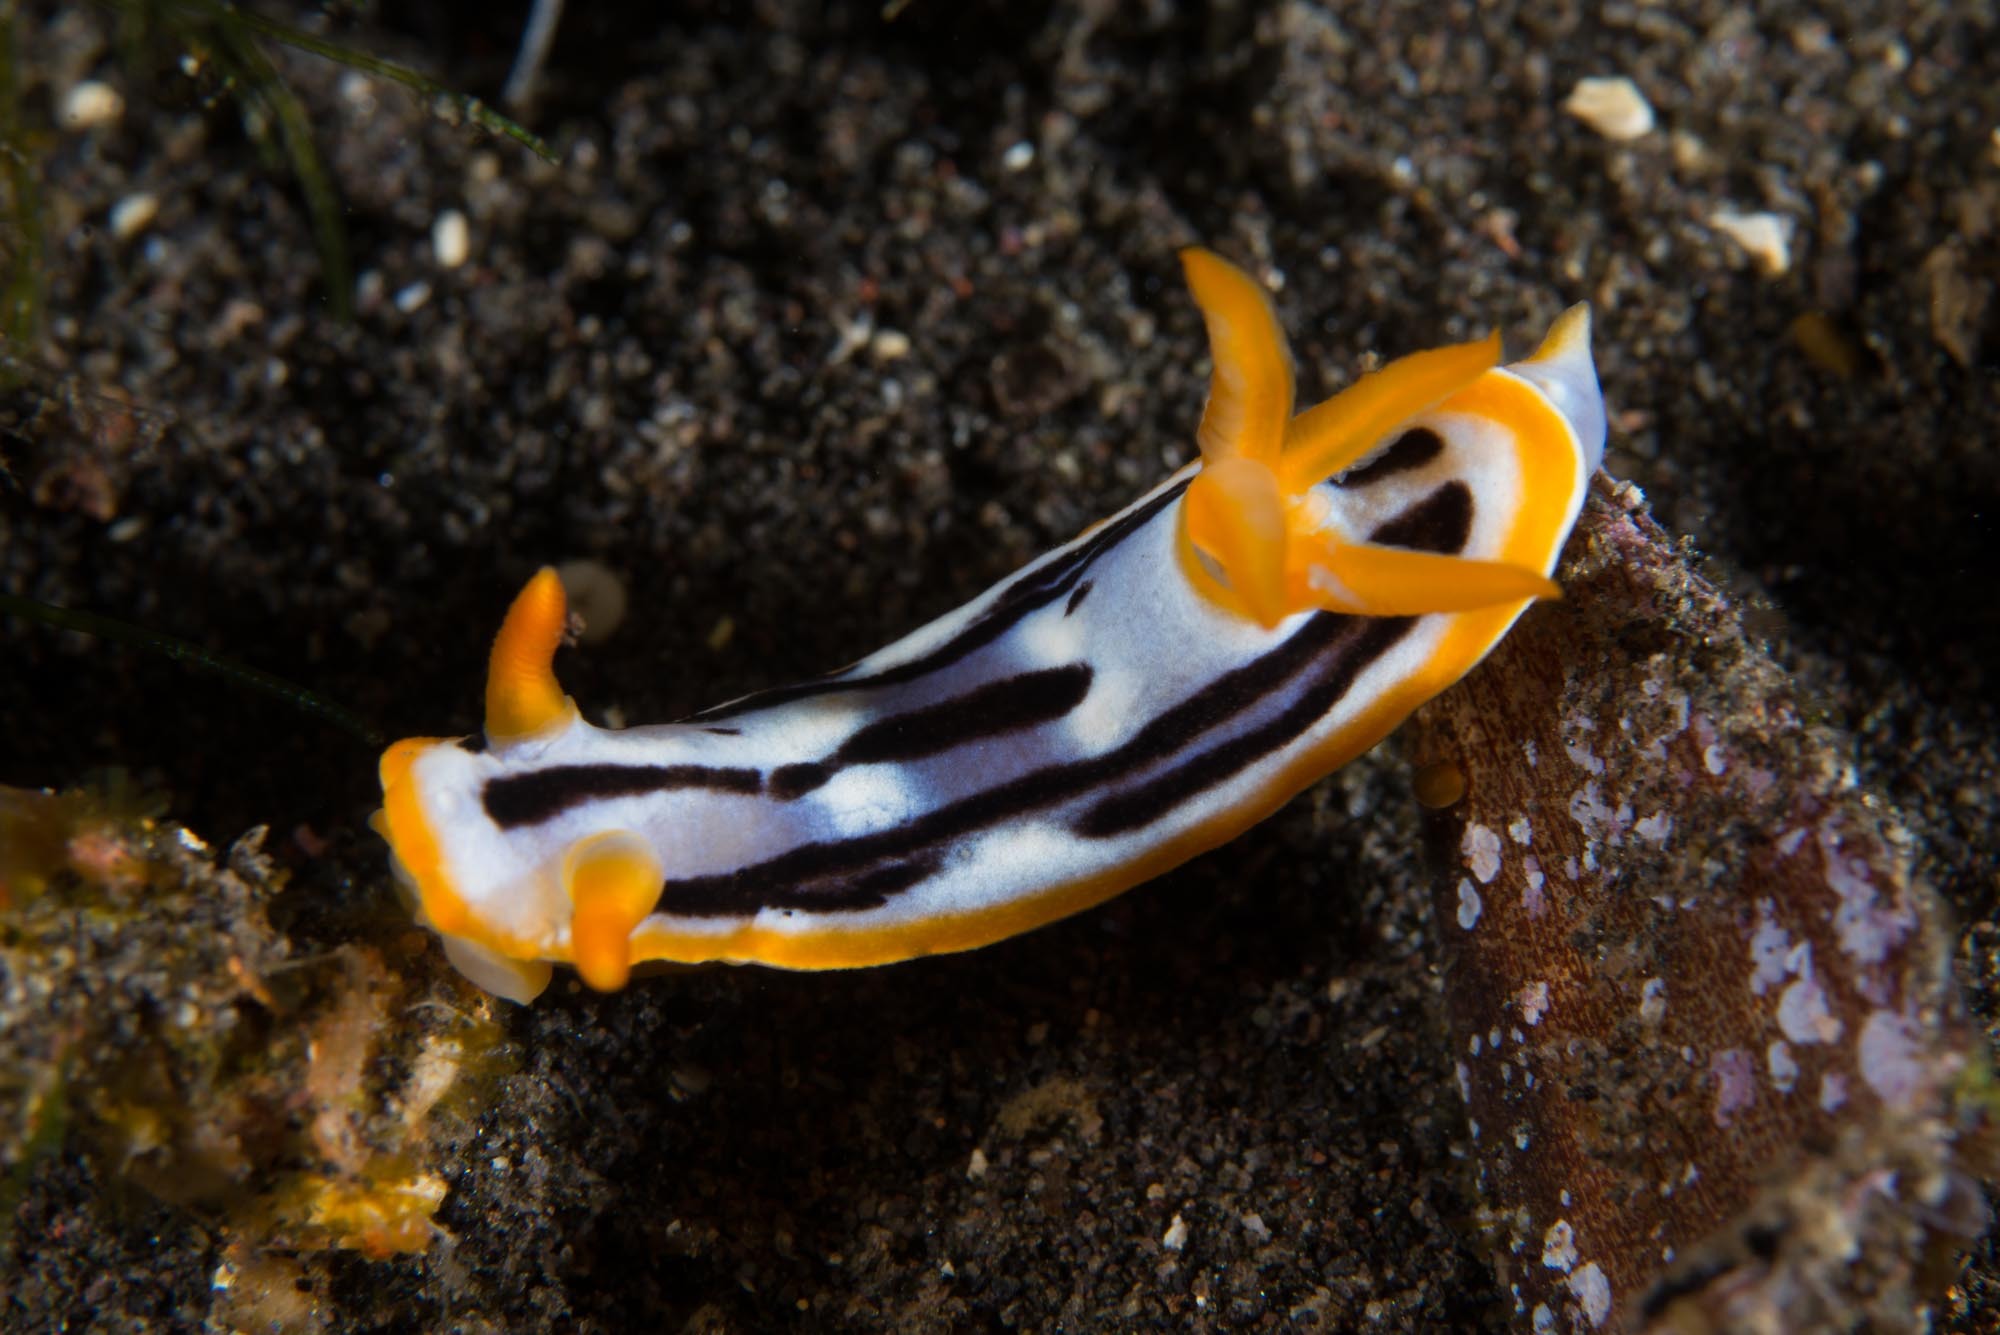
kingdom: Animalia
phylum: Mollusca
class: Gastropoda
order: Nudibranchia
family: Chromodorididae
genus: Chromodoris
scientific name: Chromodoris strigata
